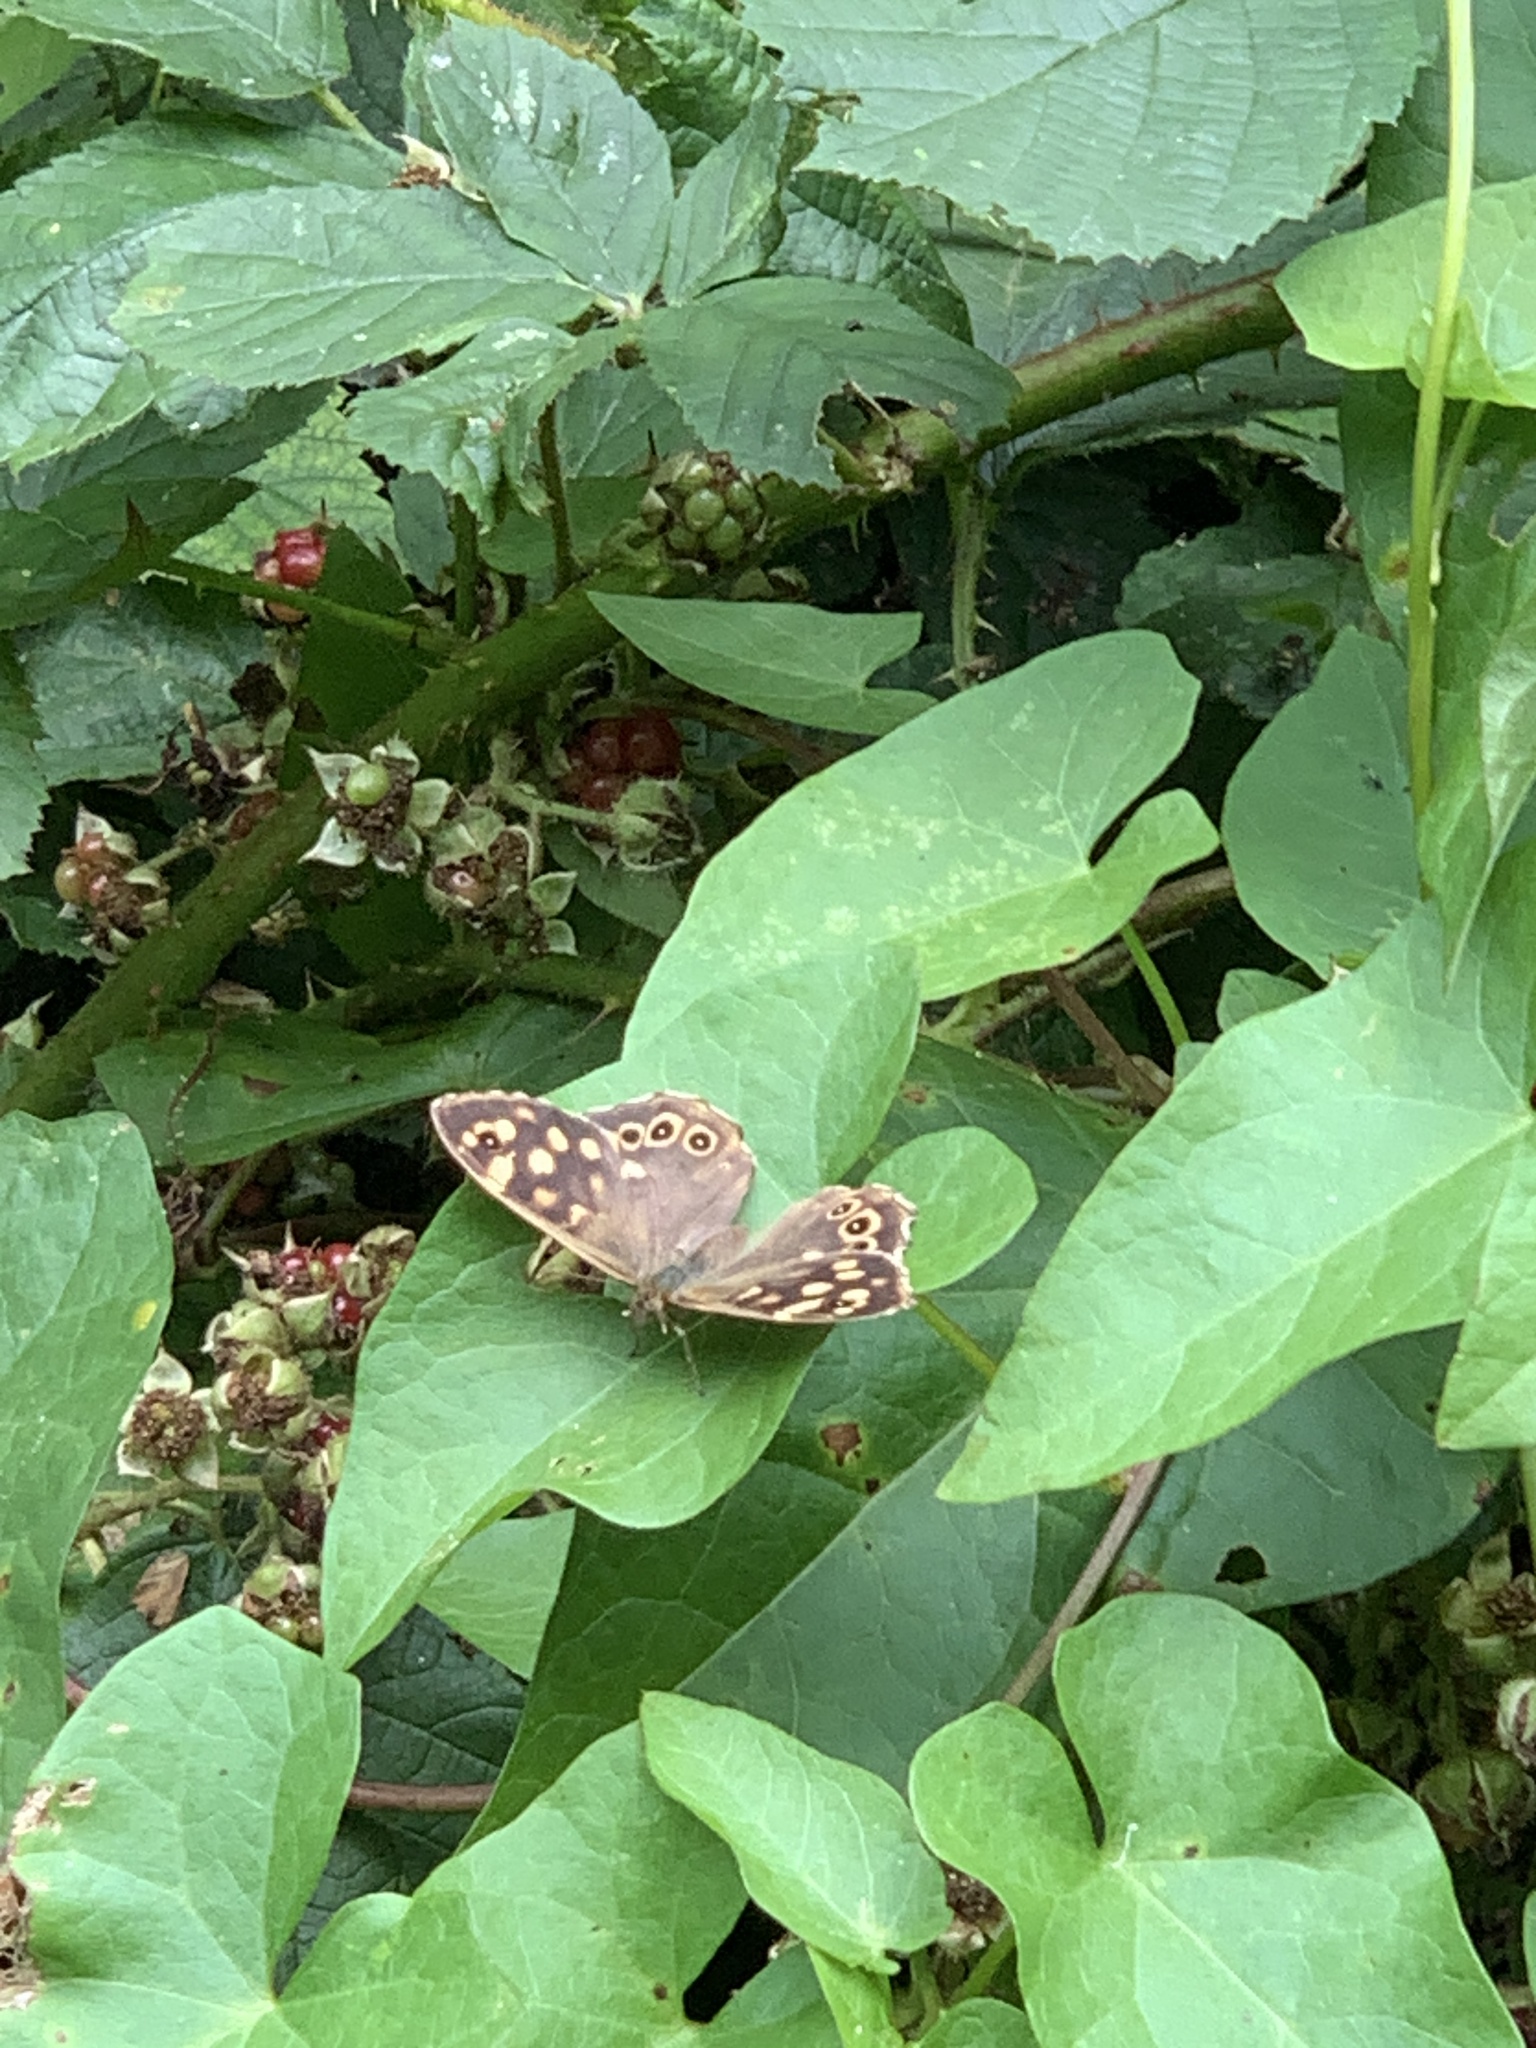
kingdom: Animalia
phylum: Arthropoda
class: Insecta
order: Lepidoptera
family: Nymphalidae
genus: Pararge
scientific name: Pararge aegeria
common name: Speckled wood
